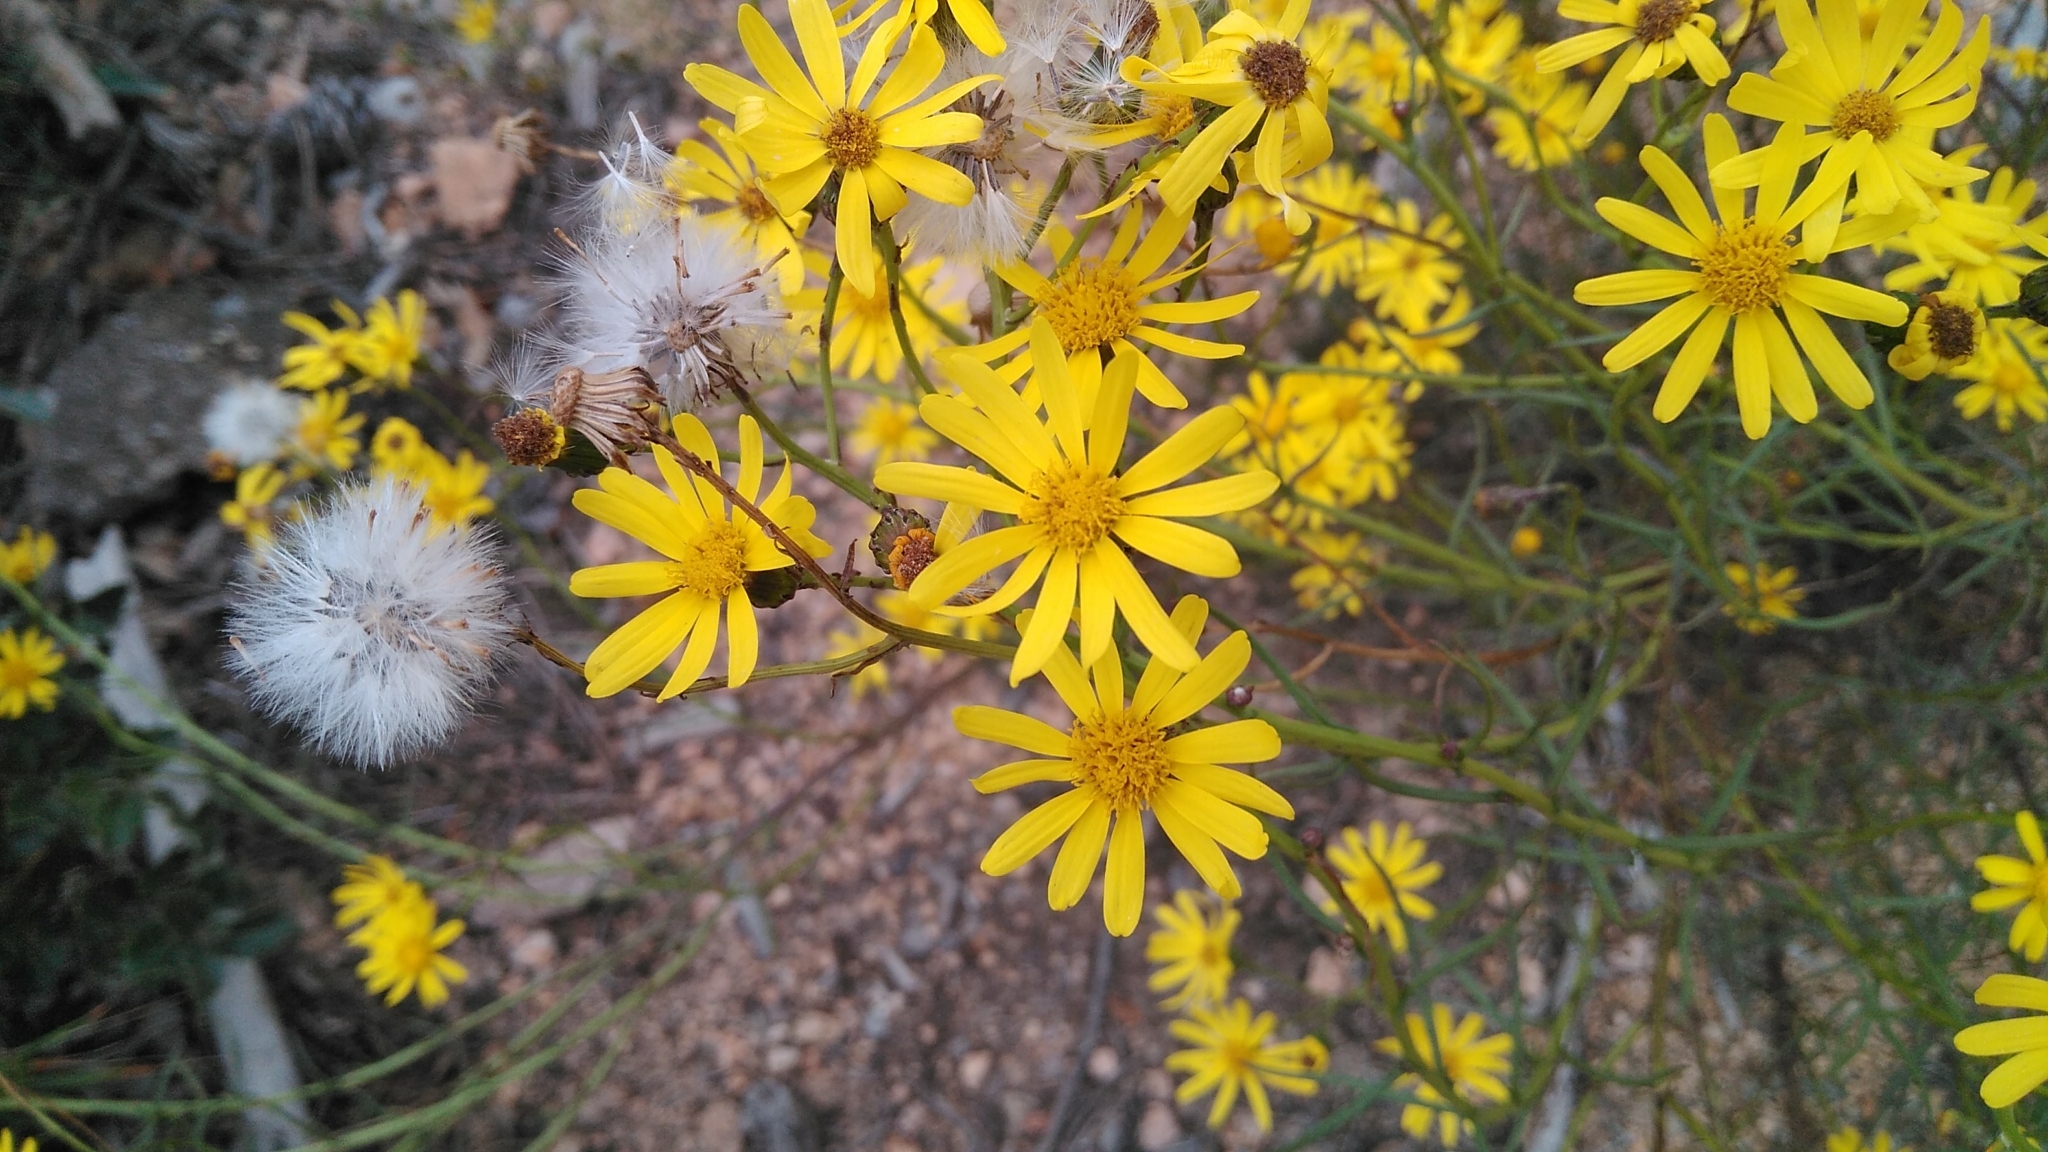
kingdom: Plantae
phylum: Tracheophyta
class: Magnoliopsida
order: Asterales
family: Asteraceae
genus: Senecio
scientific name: Senecio inaequidens
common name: Narrow-leaved ragwort
